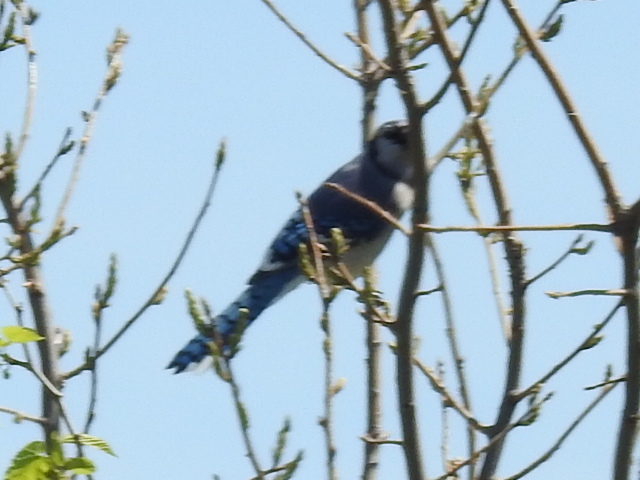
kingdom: Animalia
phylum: Chordata
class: Aves
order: Passeriformes
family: Corvidae
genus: Cyanocitta
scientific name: Cyanocitta cristata
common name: Blue jay
